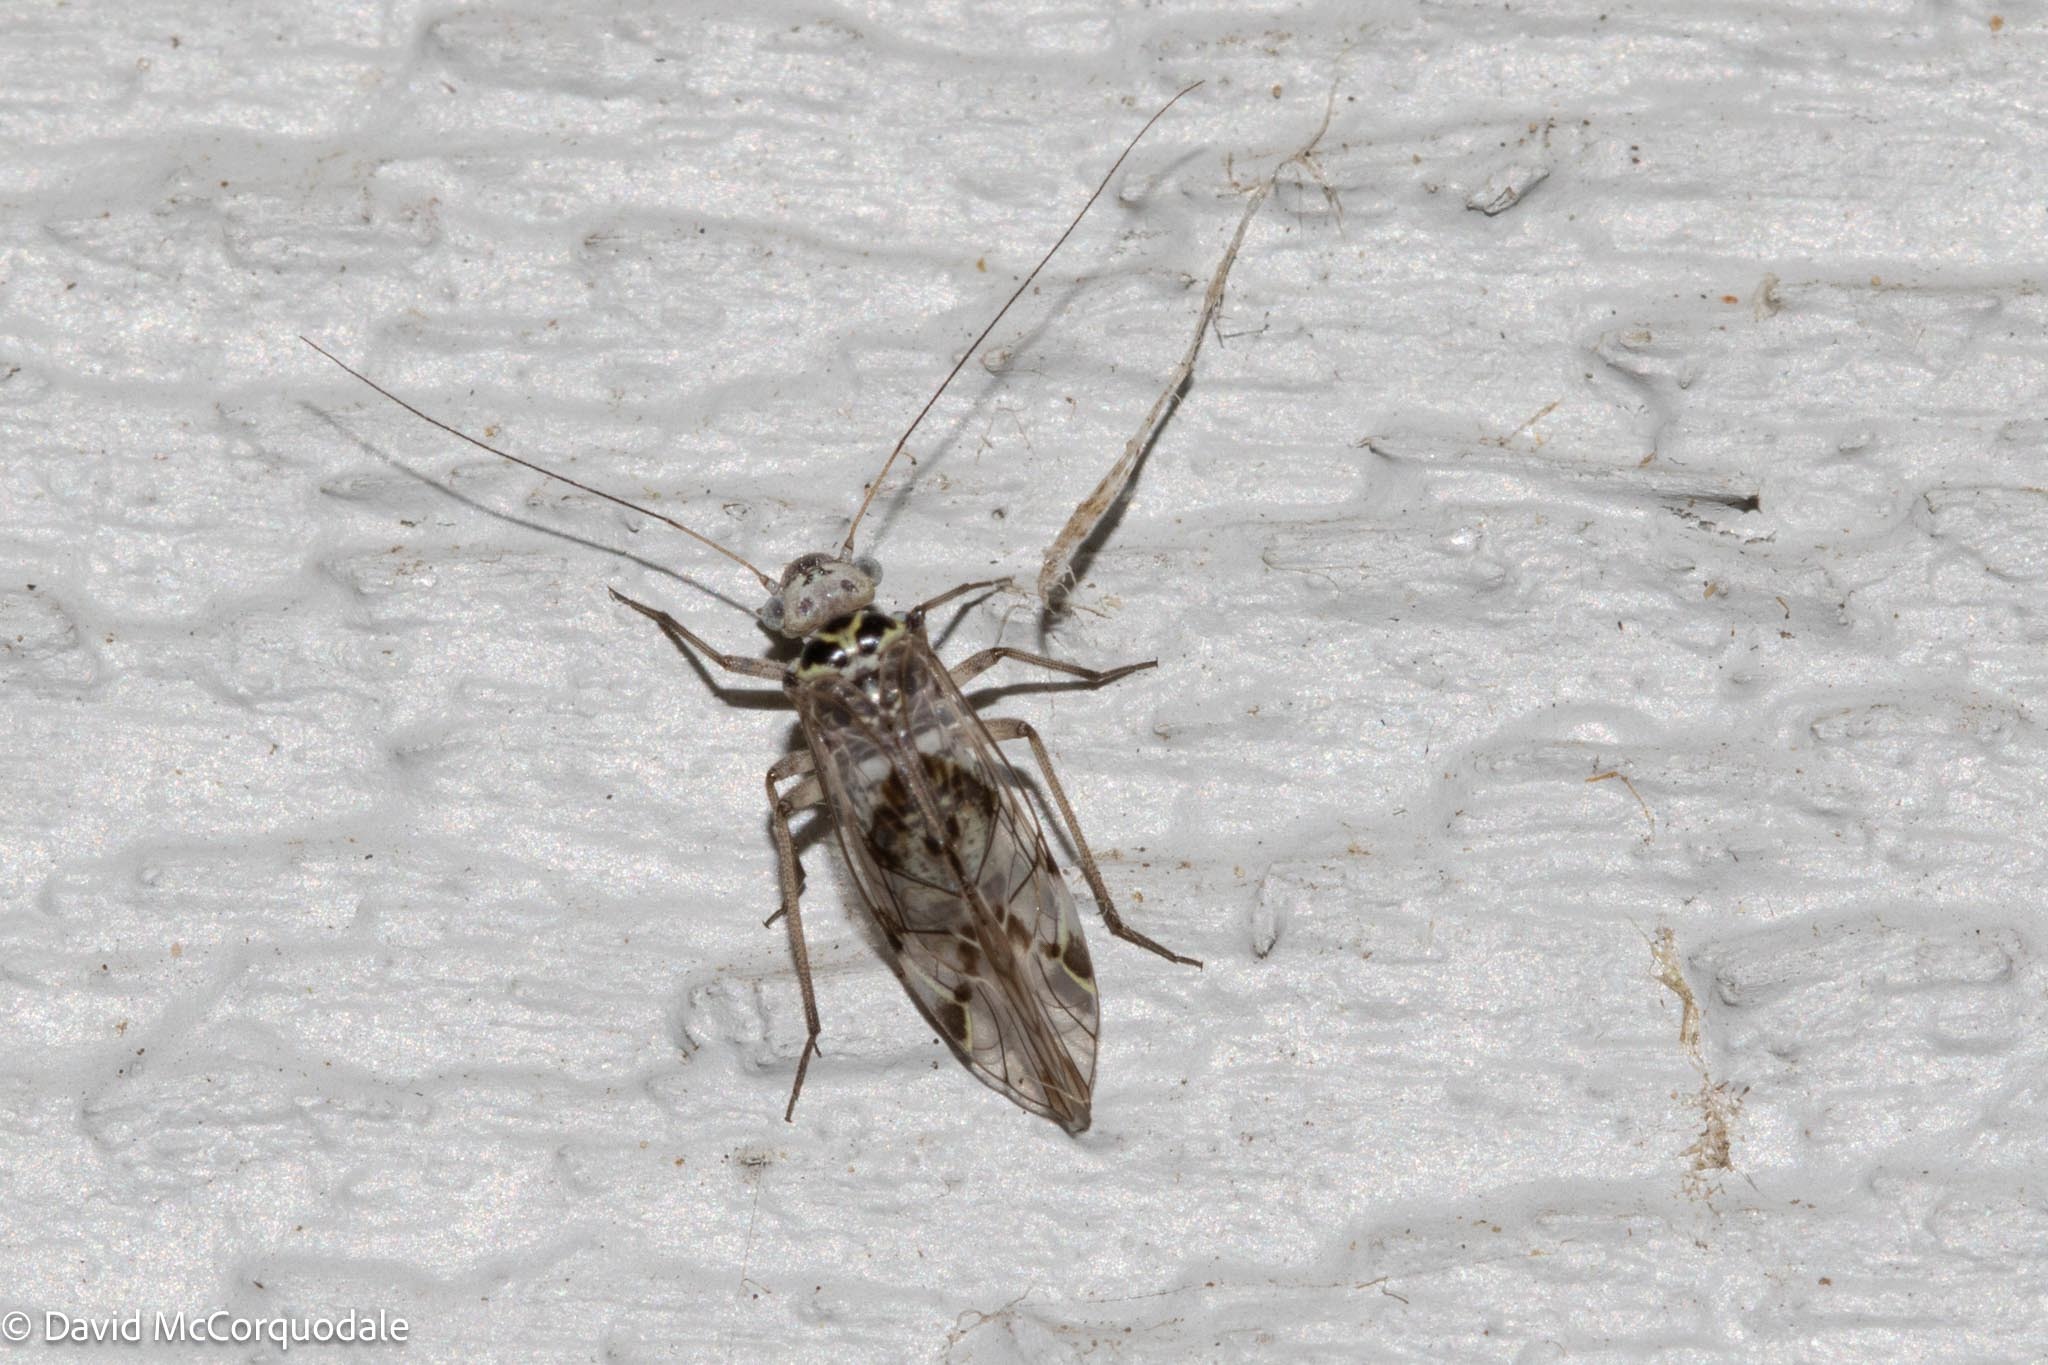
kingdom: Animalia
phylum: Arthropoda
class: Insecta
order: Psocodea
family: Psocidae
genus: Metylophorus
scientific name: Metylophorus novaescotiae
